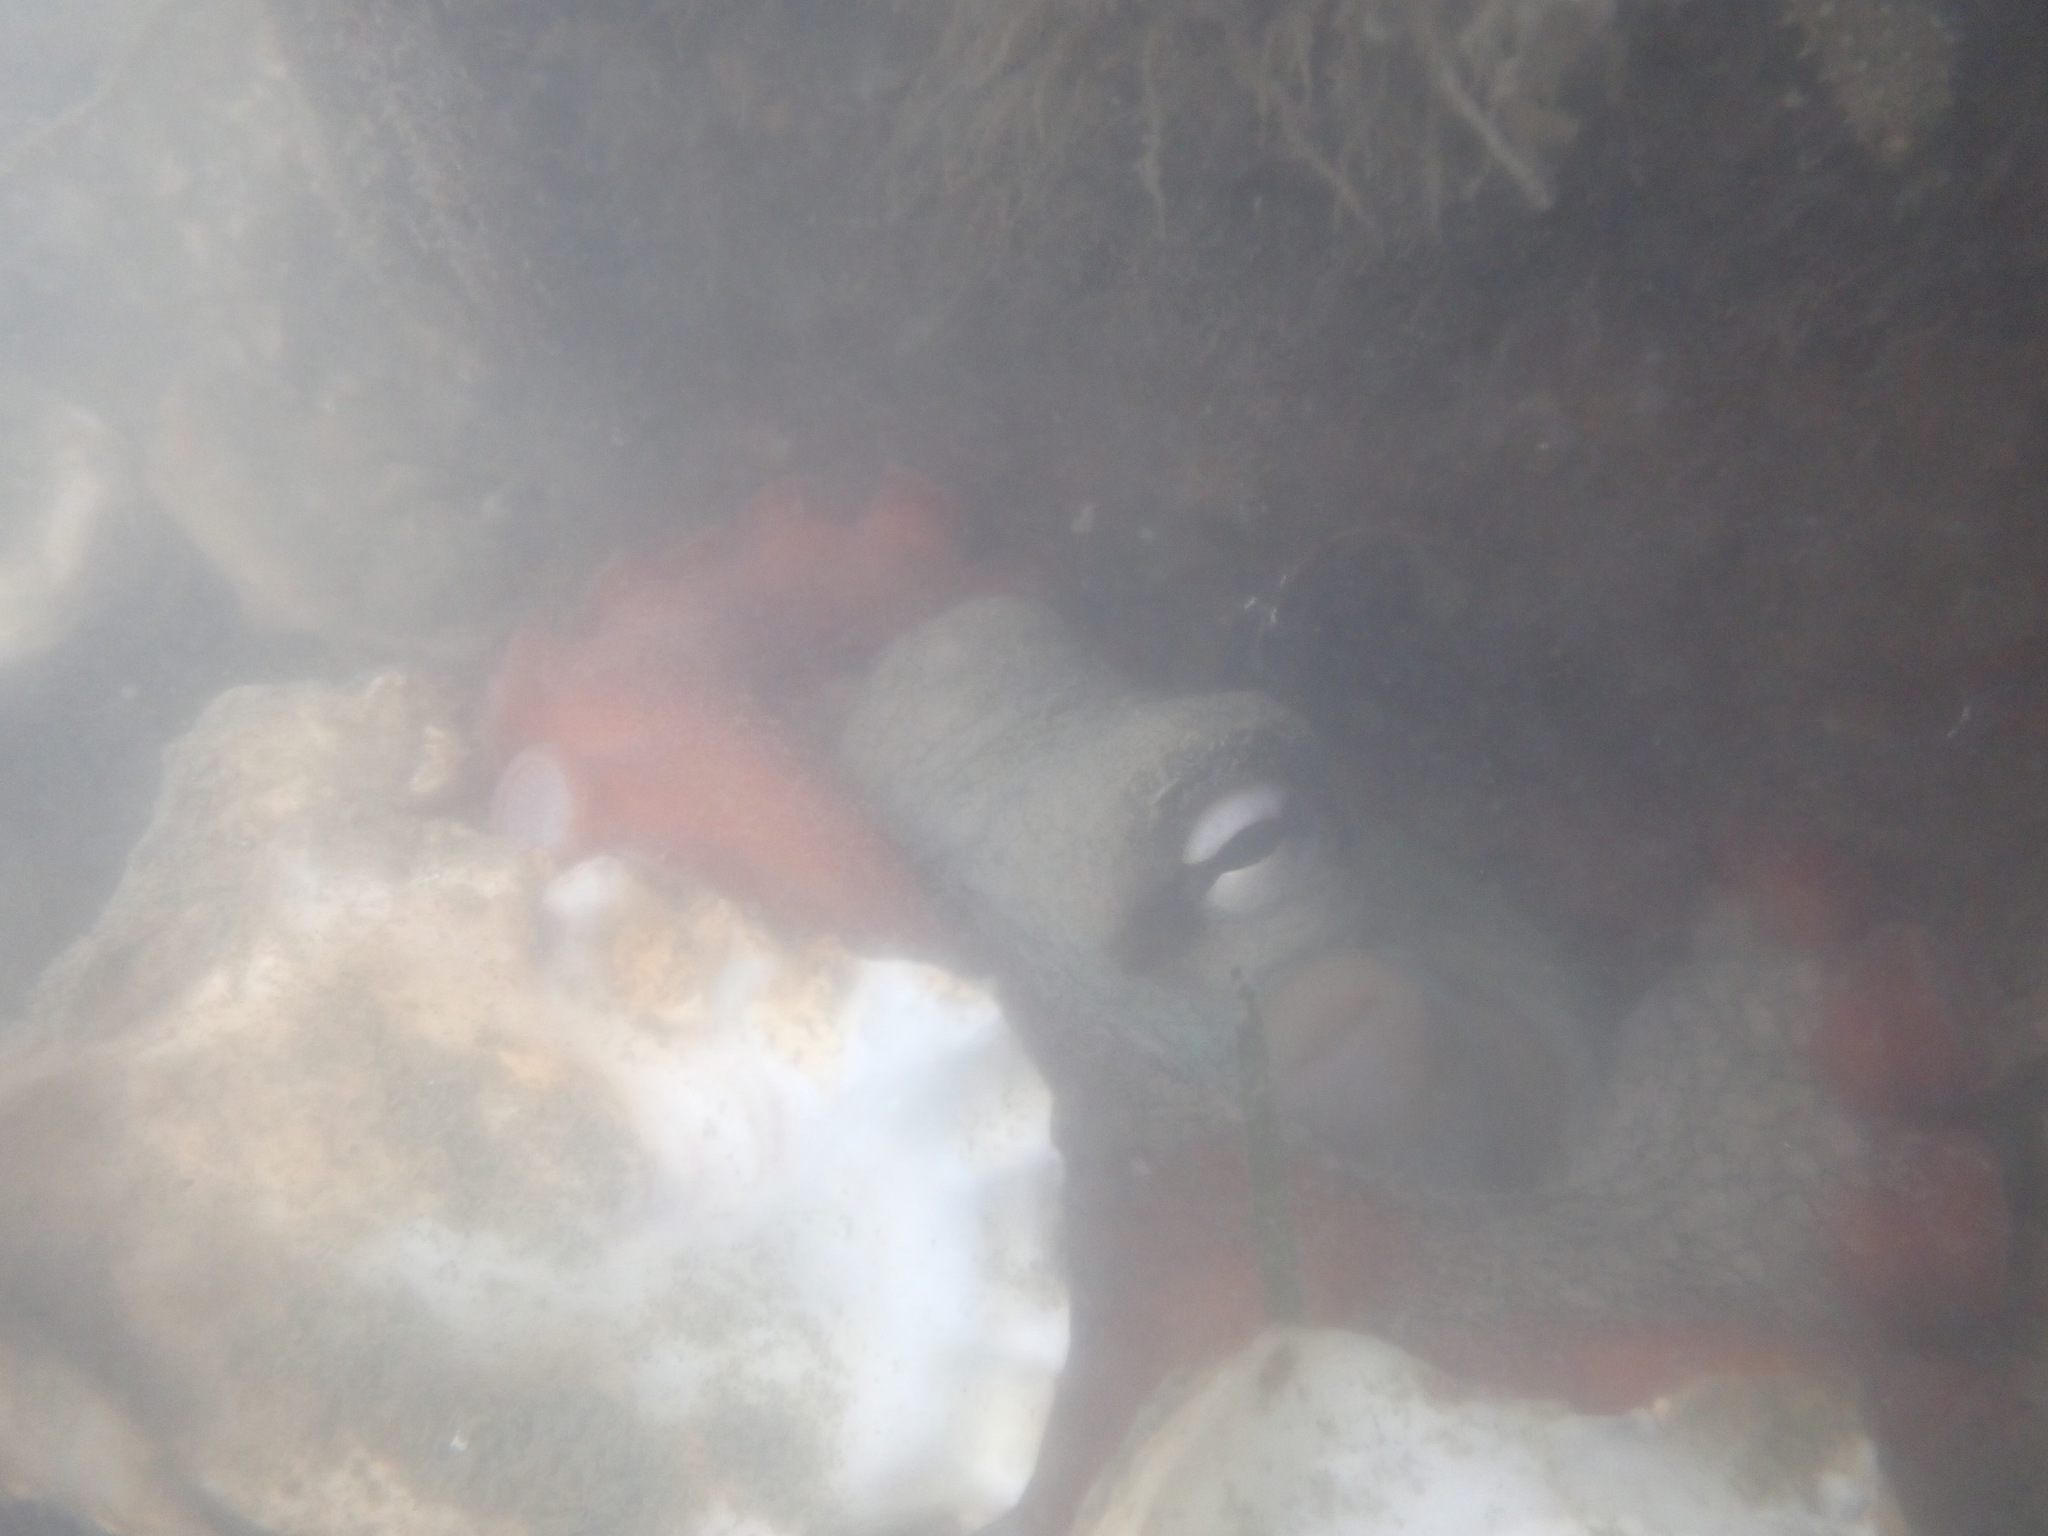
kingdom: Animalia
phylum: Mollusca
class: Cephalopoda
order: Octopoda
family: Octopodidae
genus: Octopus
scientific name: Octopus tetricus
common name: Sydney octopus
